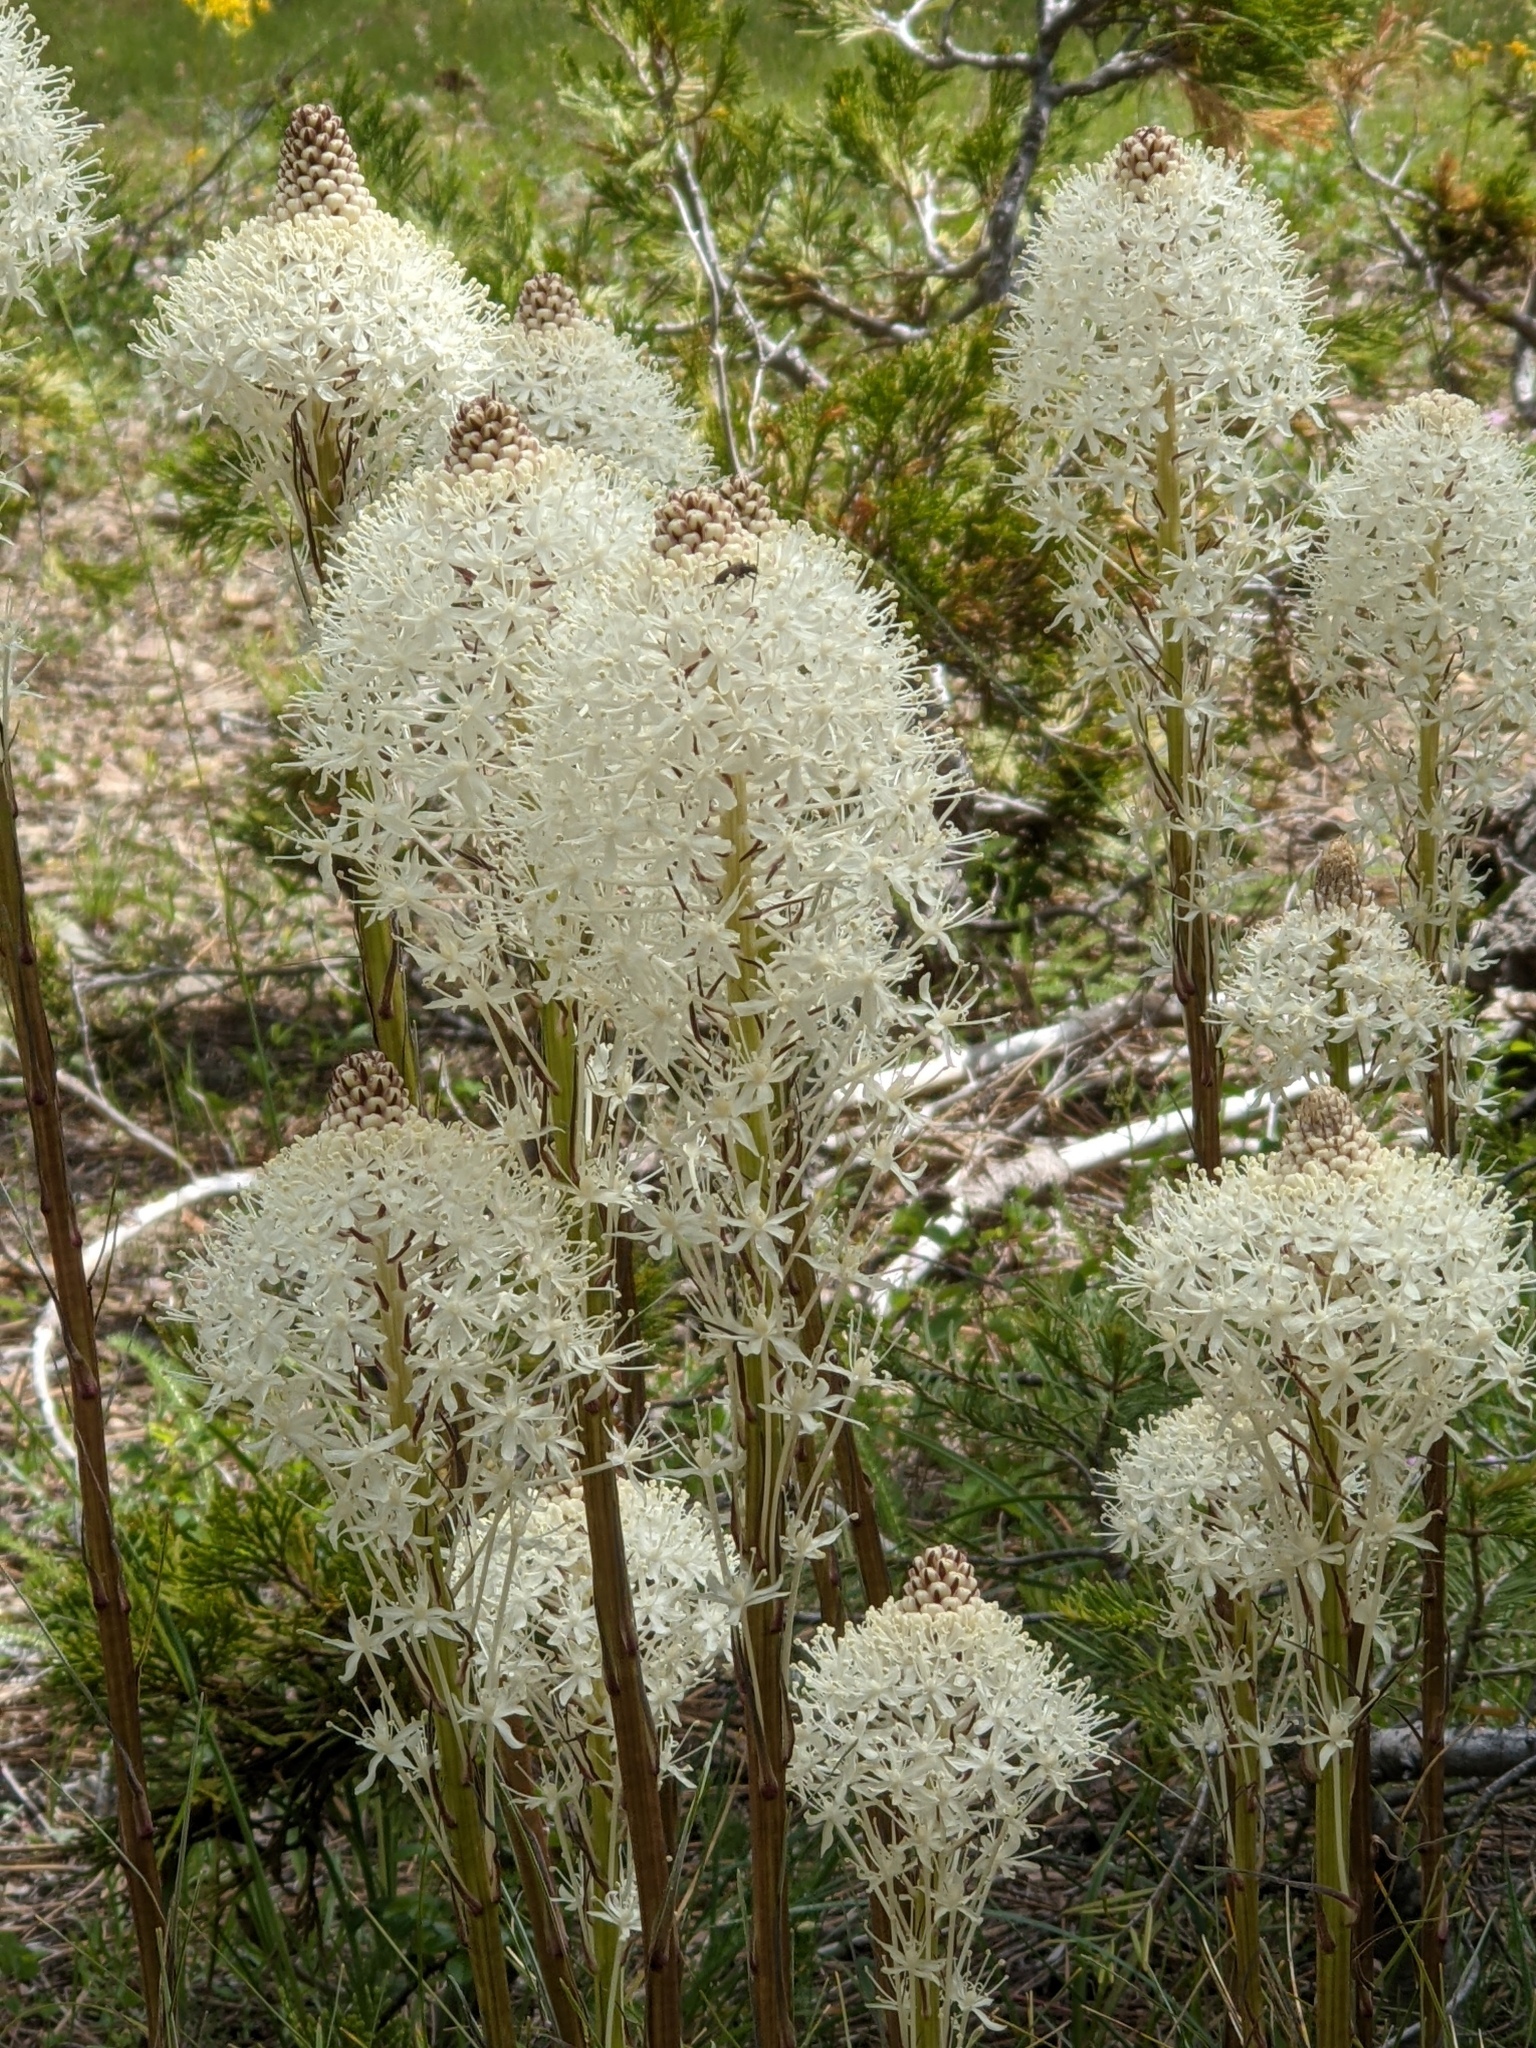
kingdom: Plantae
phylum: Tracheophyta
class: Liliopsida
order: Liliales
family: Melanthiaceae
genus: Xerophyllum
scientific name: Xerophyllum tenax
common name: Bear-grass
